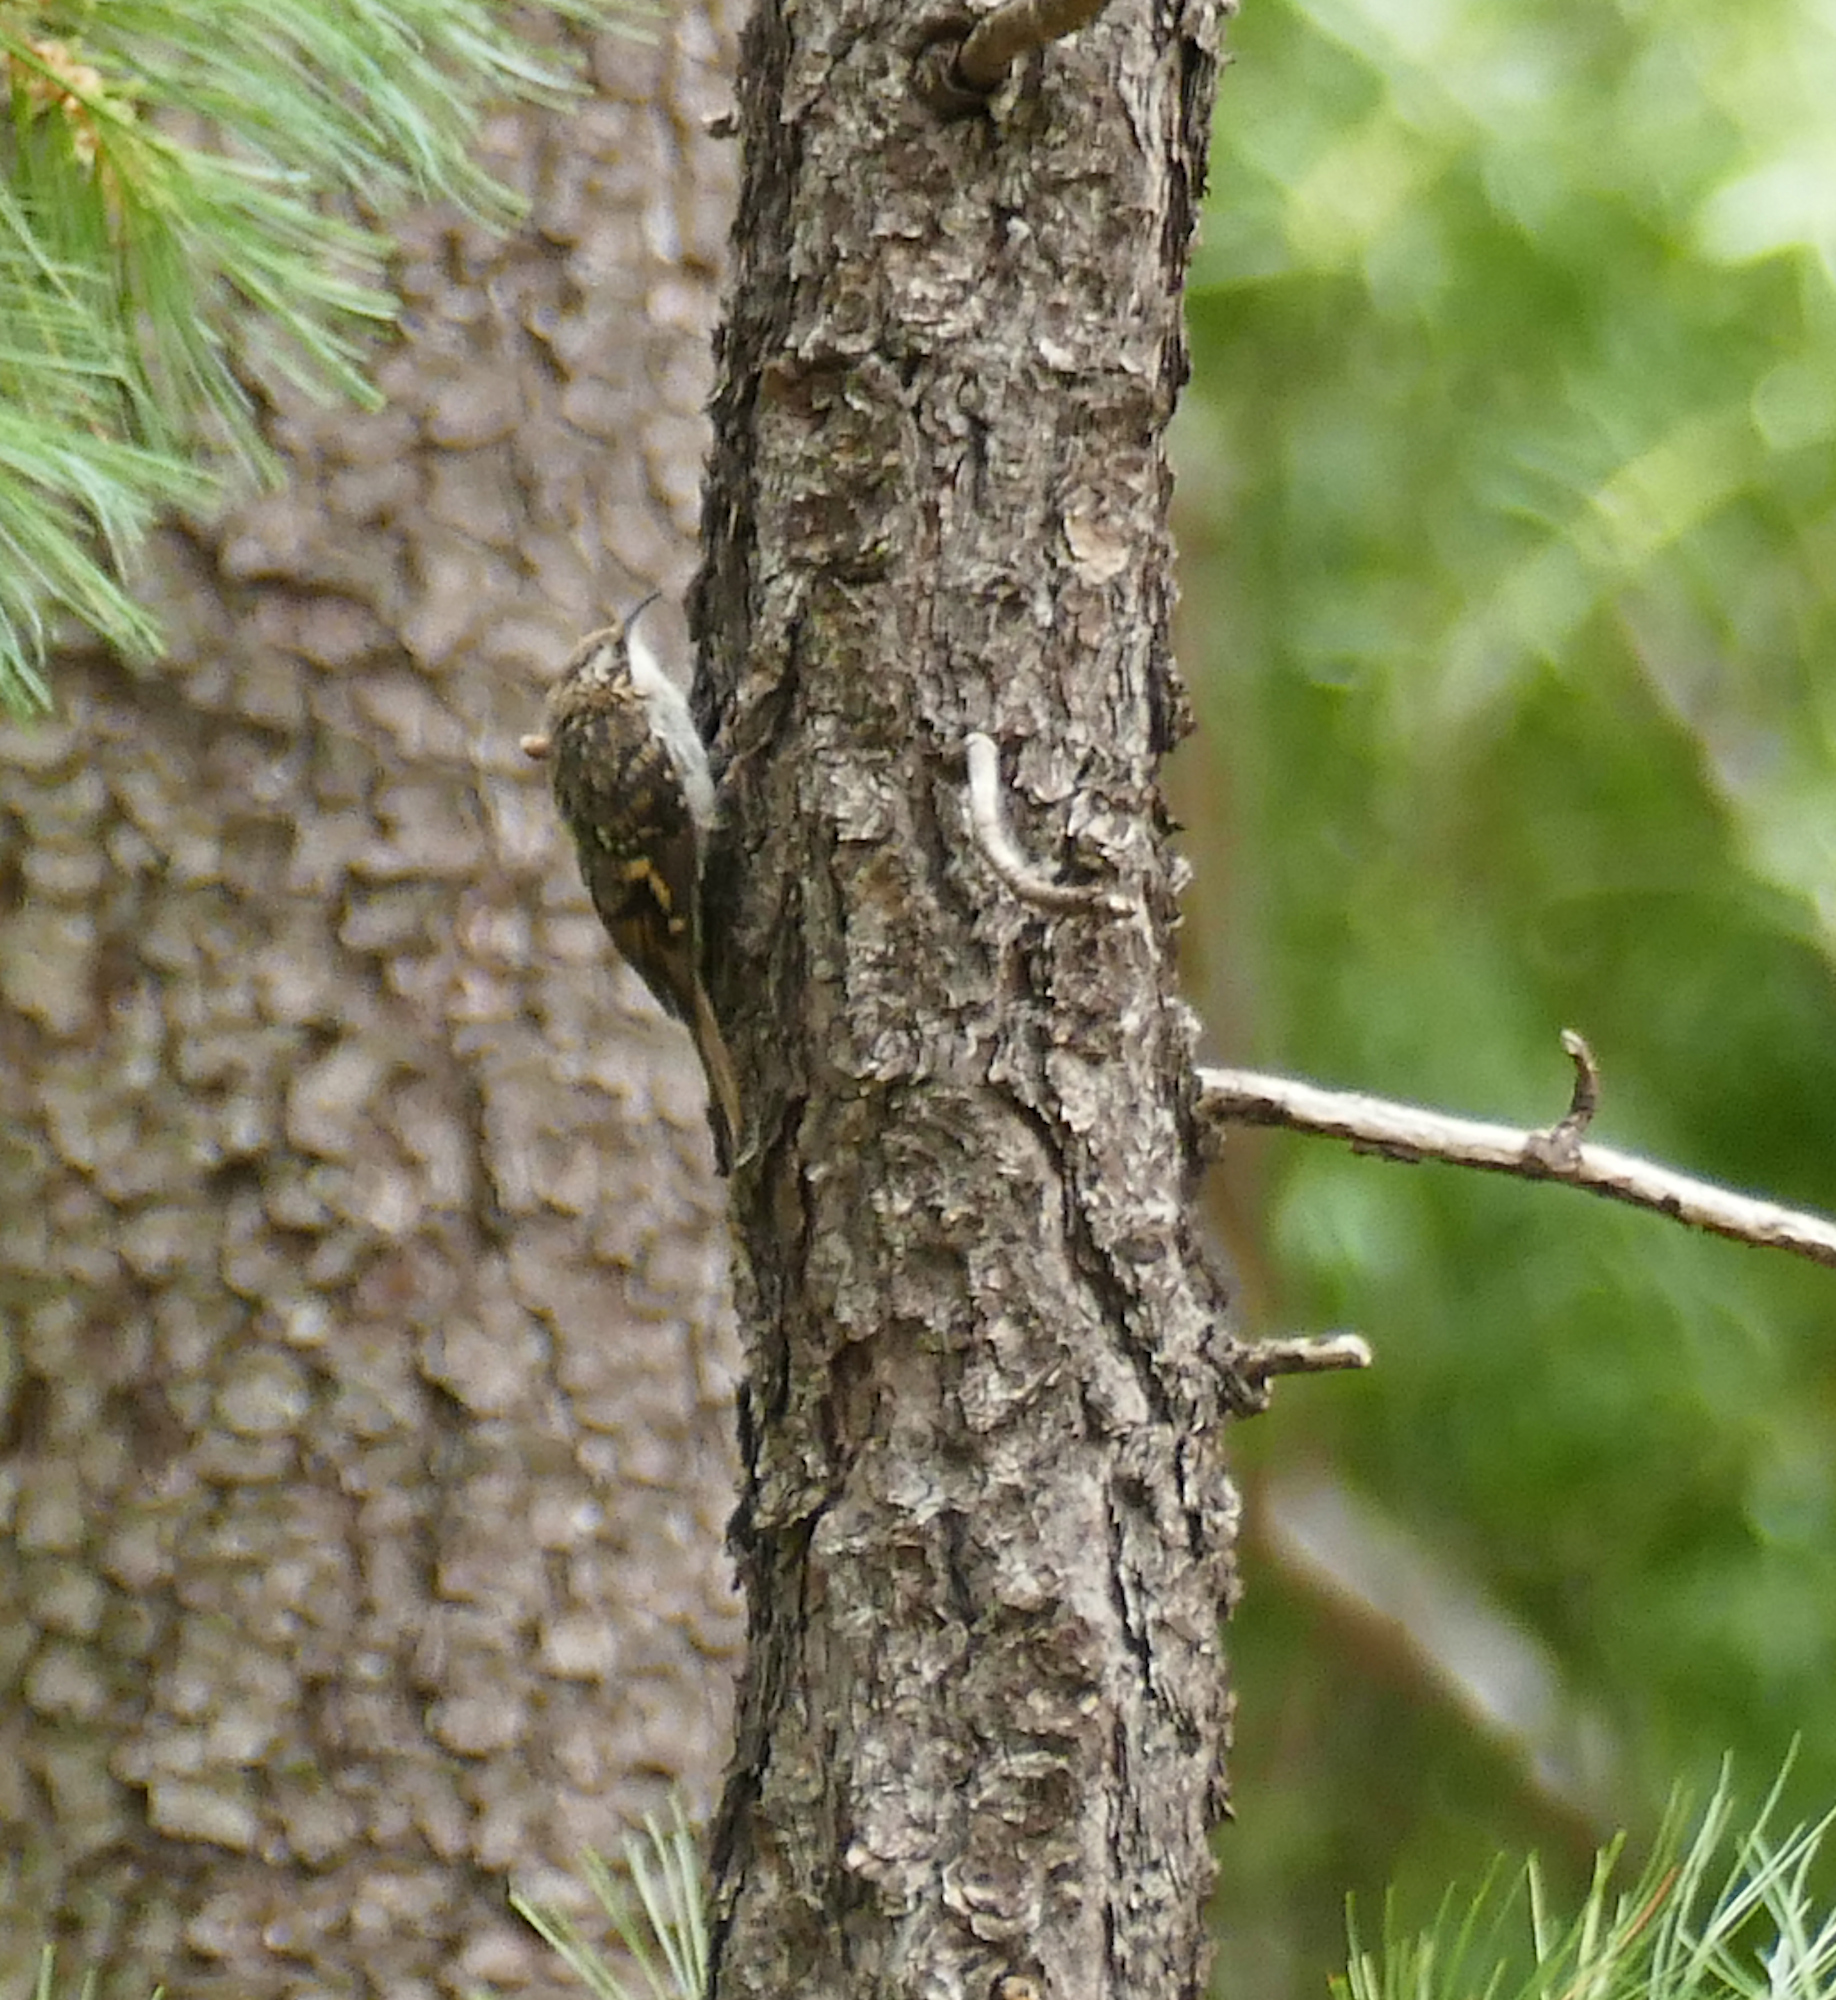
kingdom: Animalia
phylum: Chordata
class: Aves
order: Passeriformes
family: Certhiidae
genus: Certhia
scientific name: Certhia americana
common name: Brown creeper
